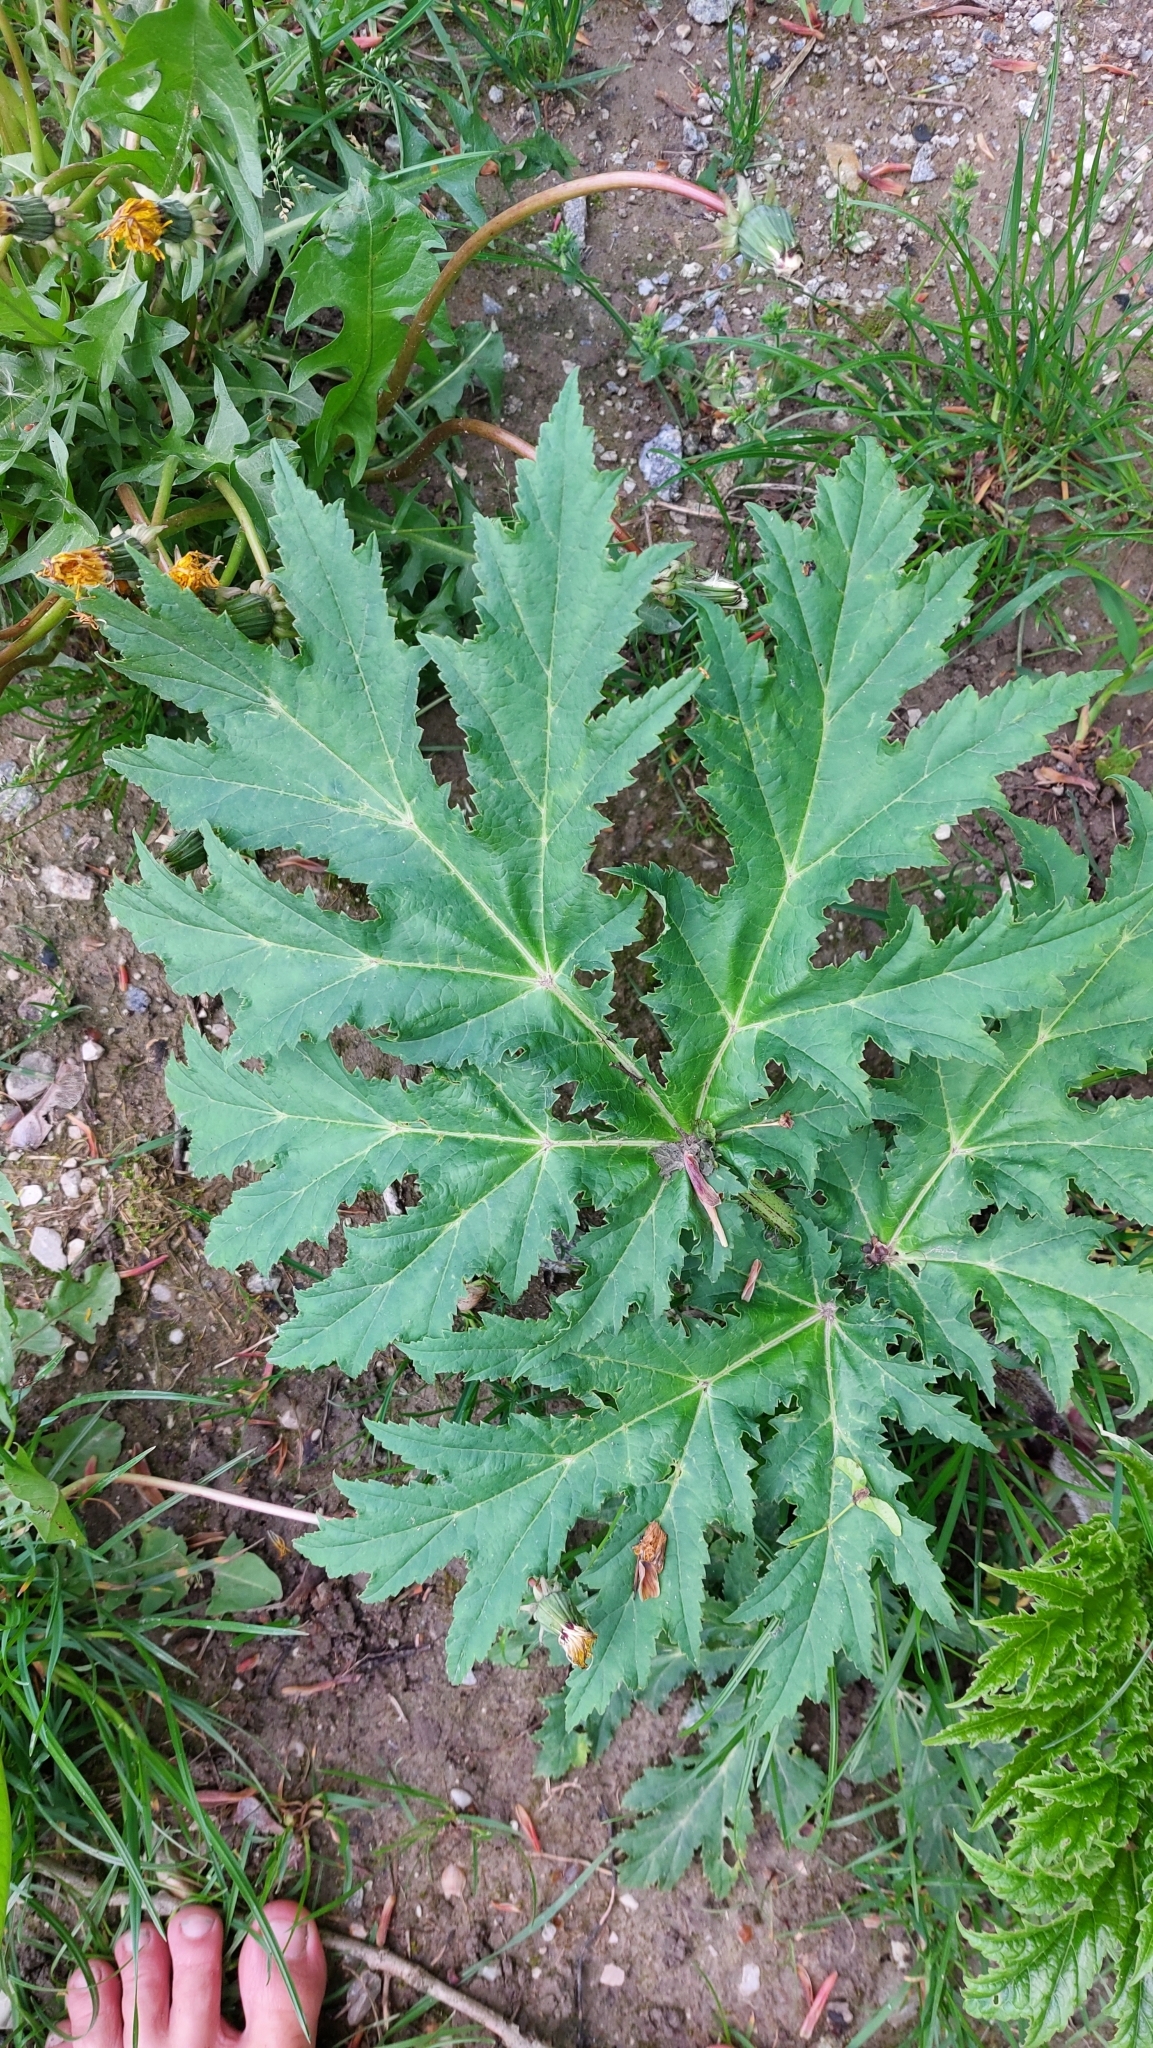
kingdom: Plantae
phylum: Tracheophyta
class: Magnoliopsida
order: Apiales
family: Apiaceae
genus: Heracleum
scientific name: Heracleum mantegazzianum
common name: Giant hogweed
